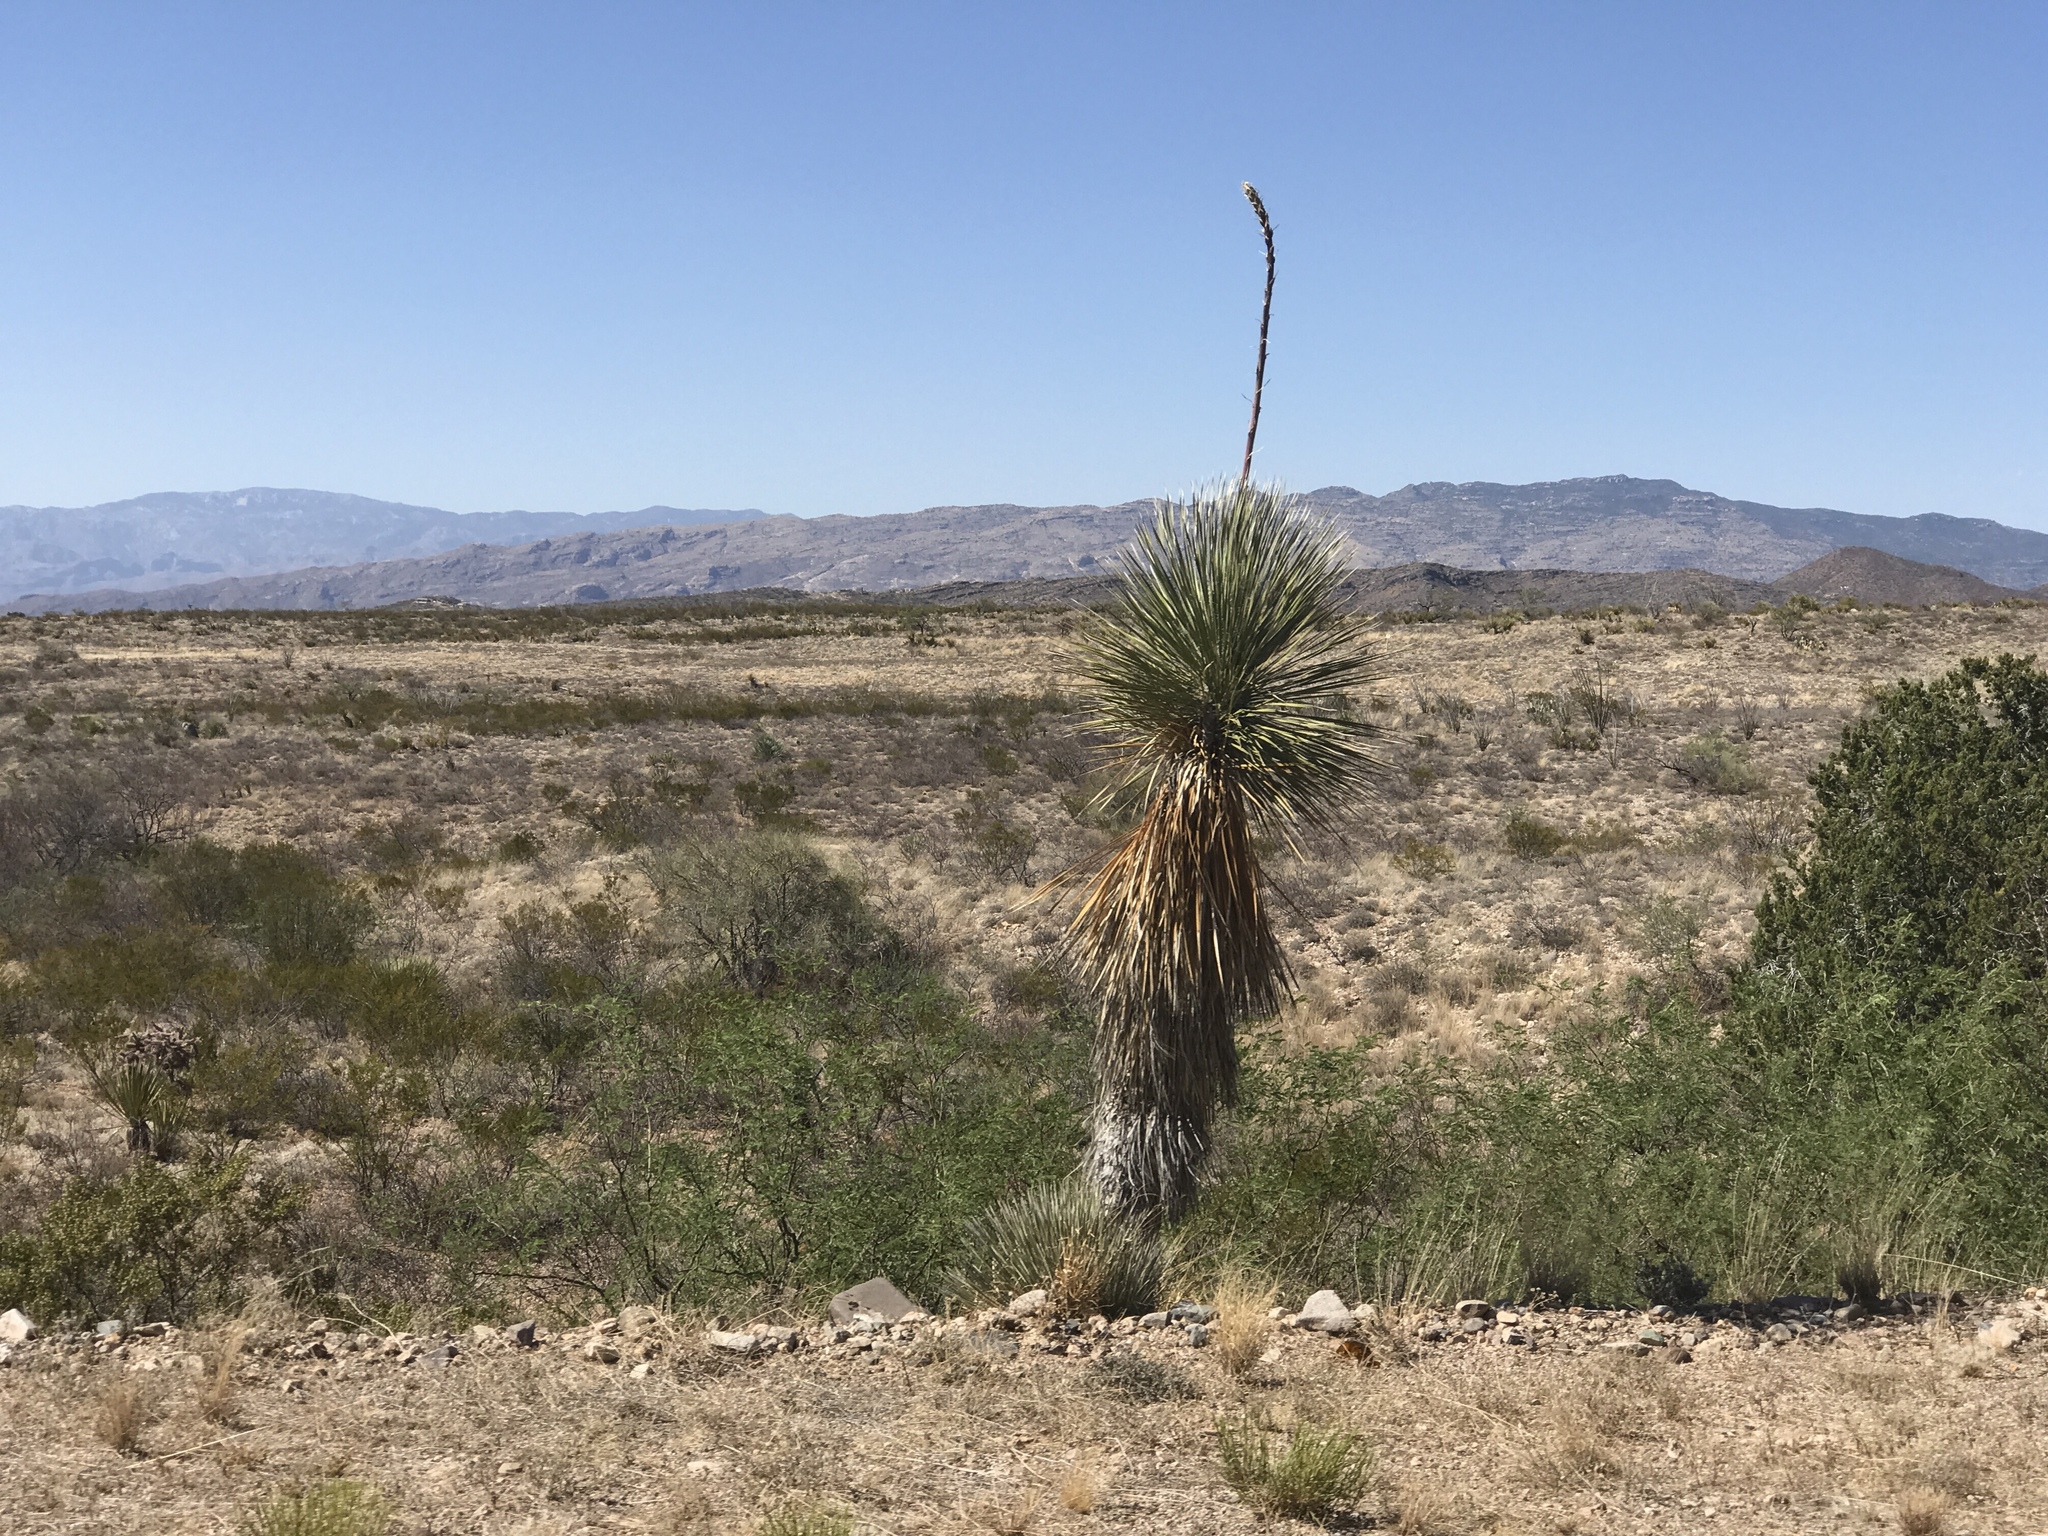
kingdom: Plantae
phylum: Tracheophyta
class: Liliopsida
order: Asparagales
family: Asparagaceae
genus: Yucca
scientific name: Yucca elata
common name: Palmella
